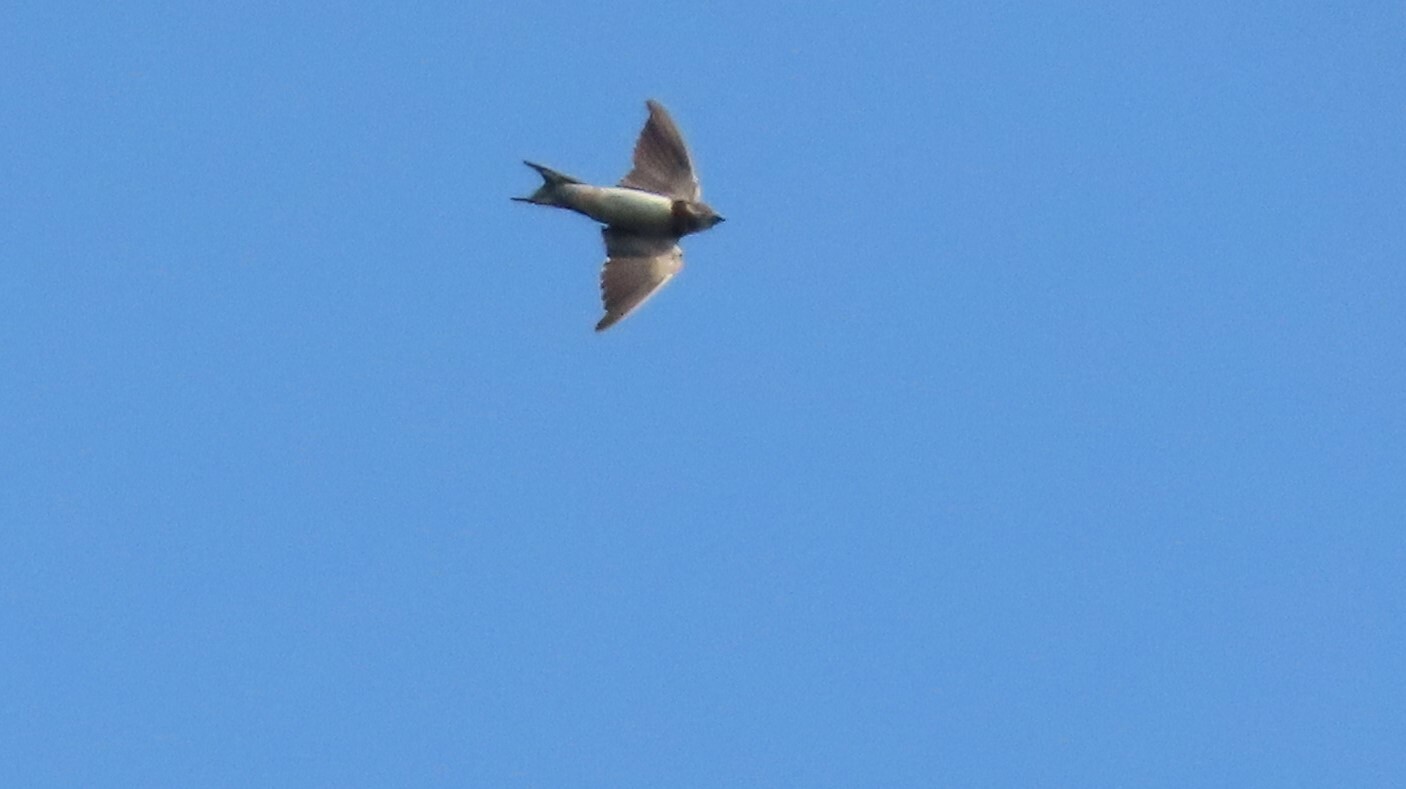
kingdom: Animalia
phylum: Chordata
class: Aves
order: Passeriformes
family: Hirundinidae
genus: Hirundo
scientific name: Hirundo rustica
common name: Barn swallow
